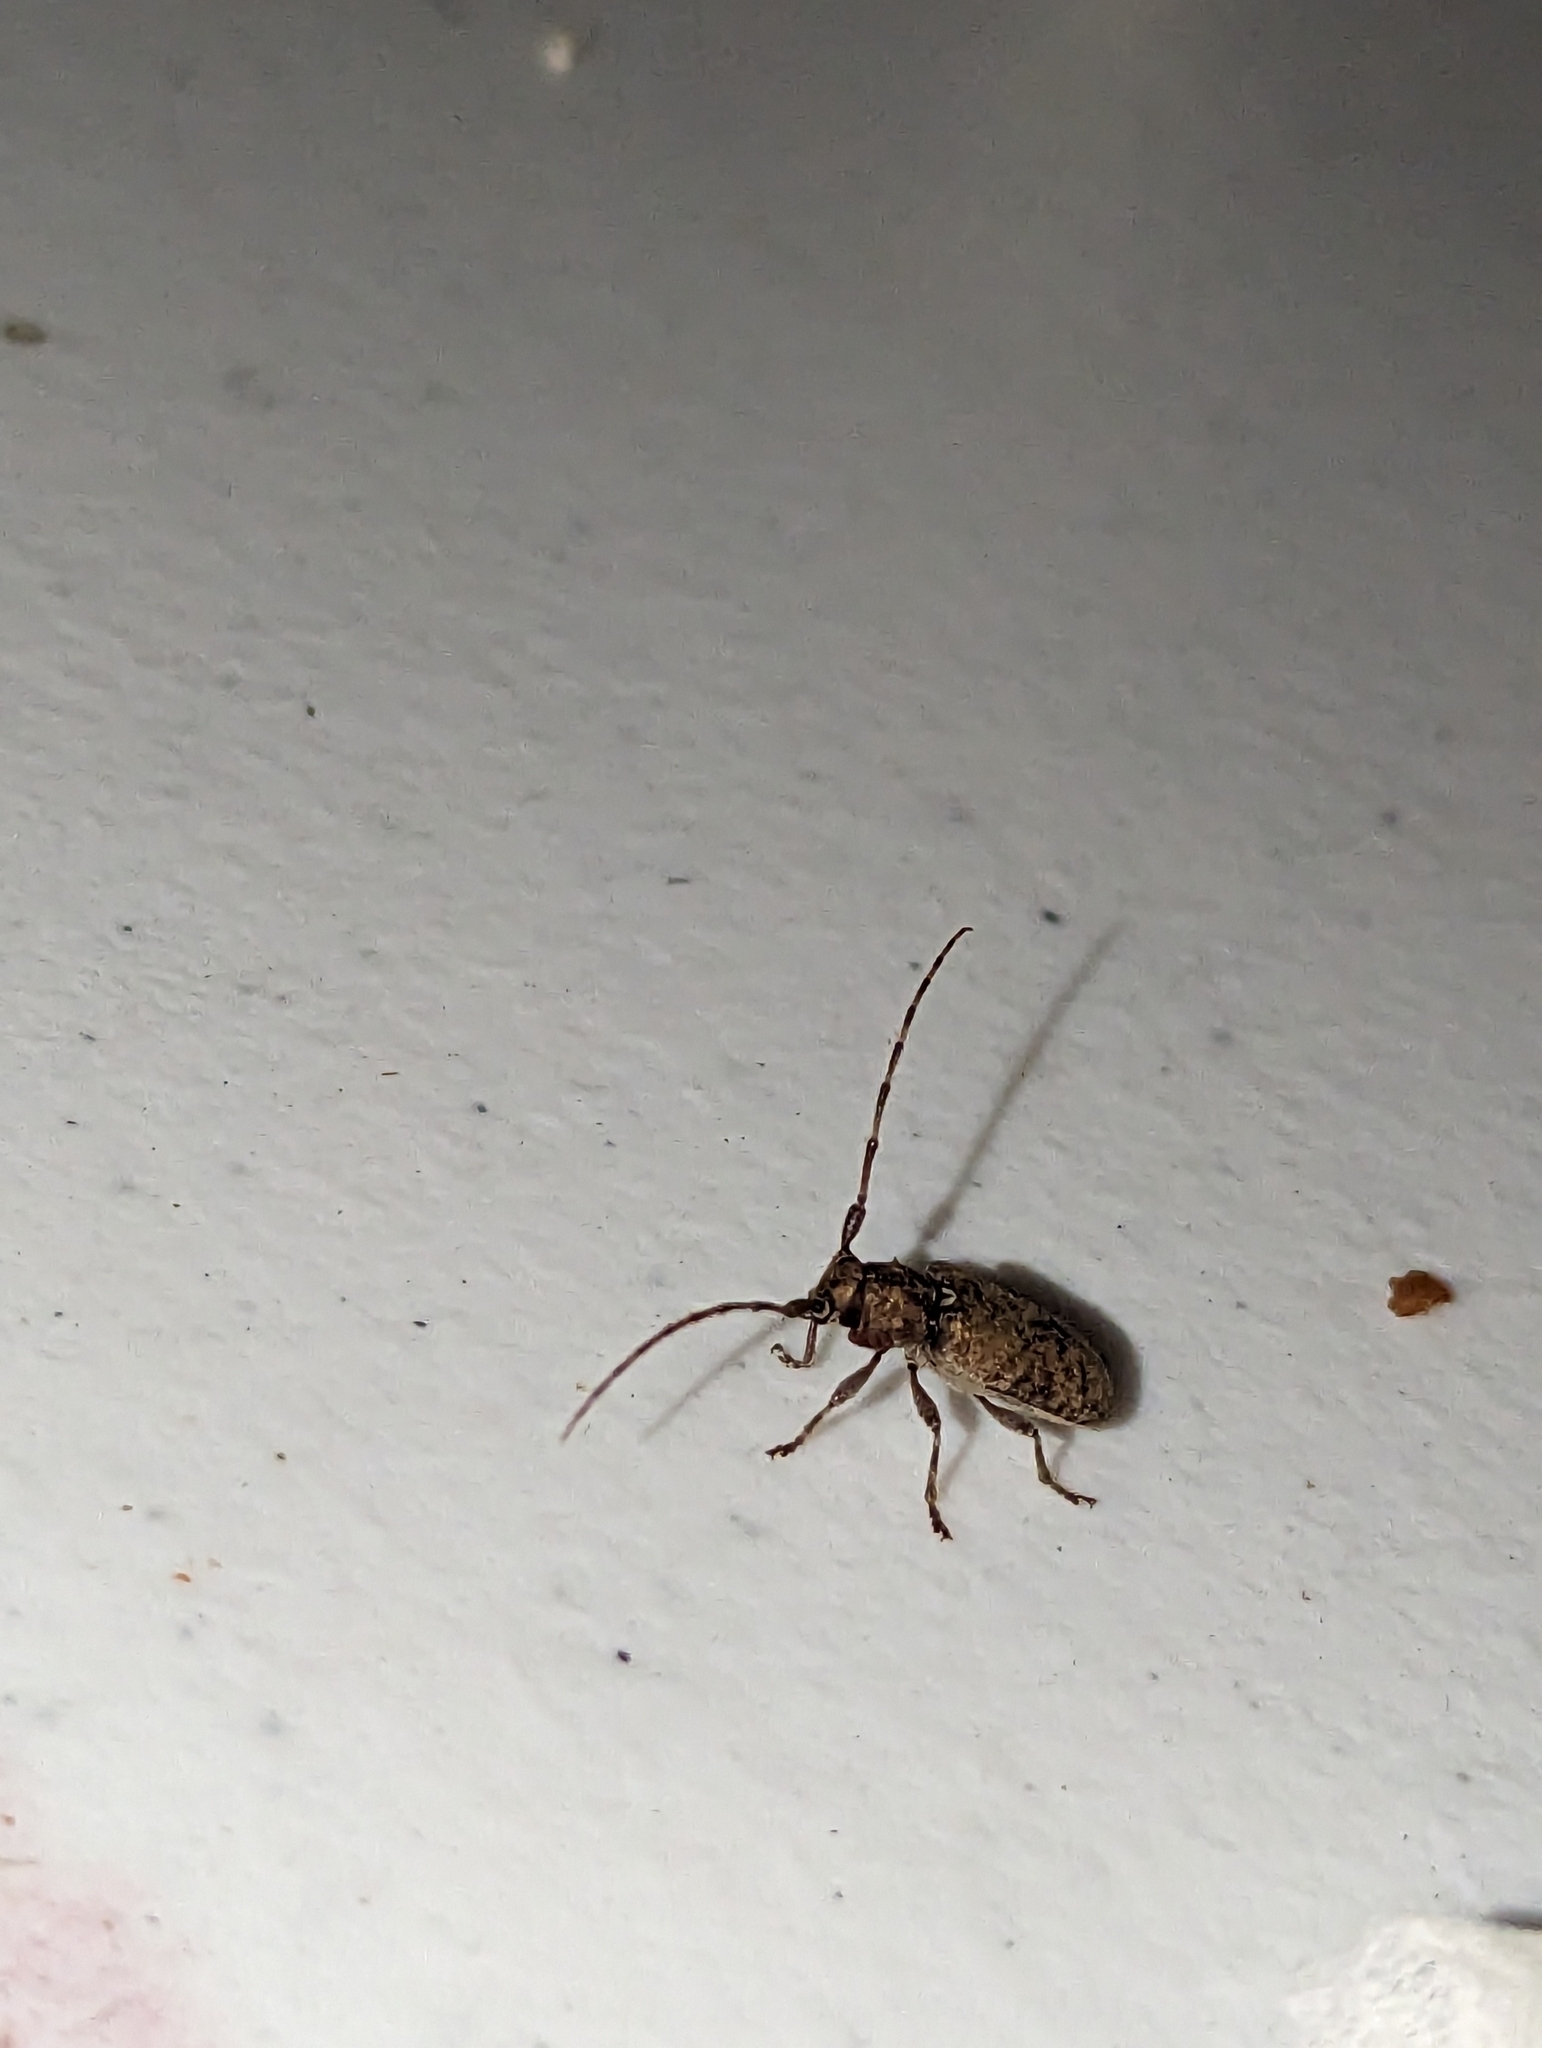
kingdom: Animalia
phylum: Arthropoda
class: Insecta
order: Coleoptera
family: Cerambycidae
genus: Estoloides
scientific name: Estoloides sordida
